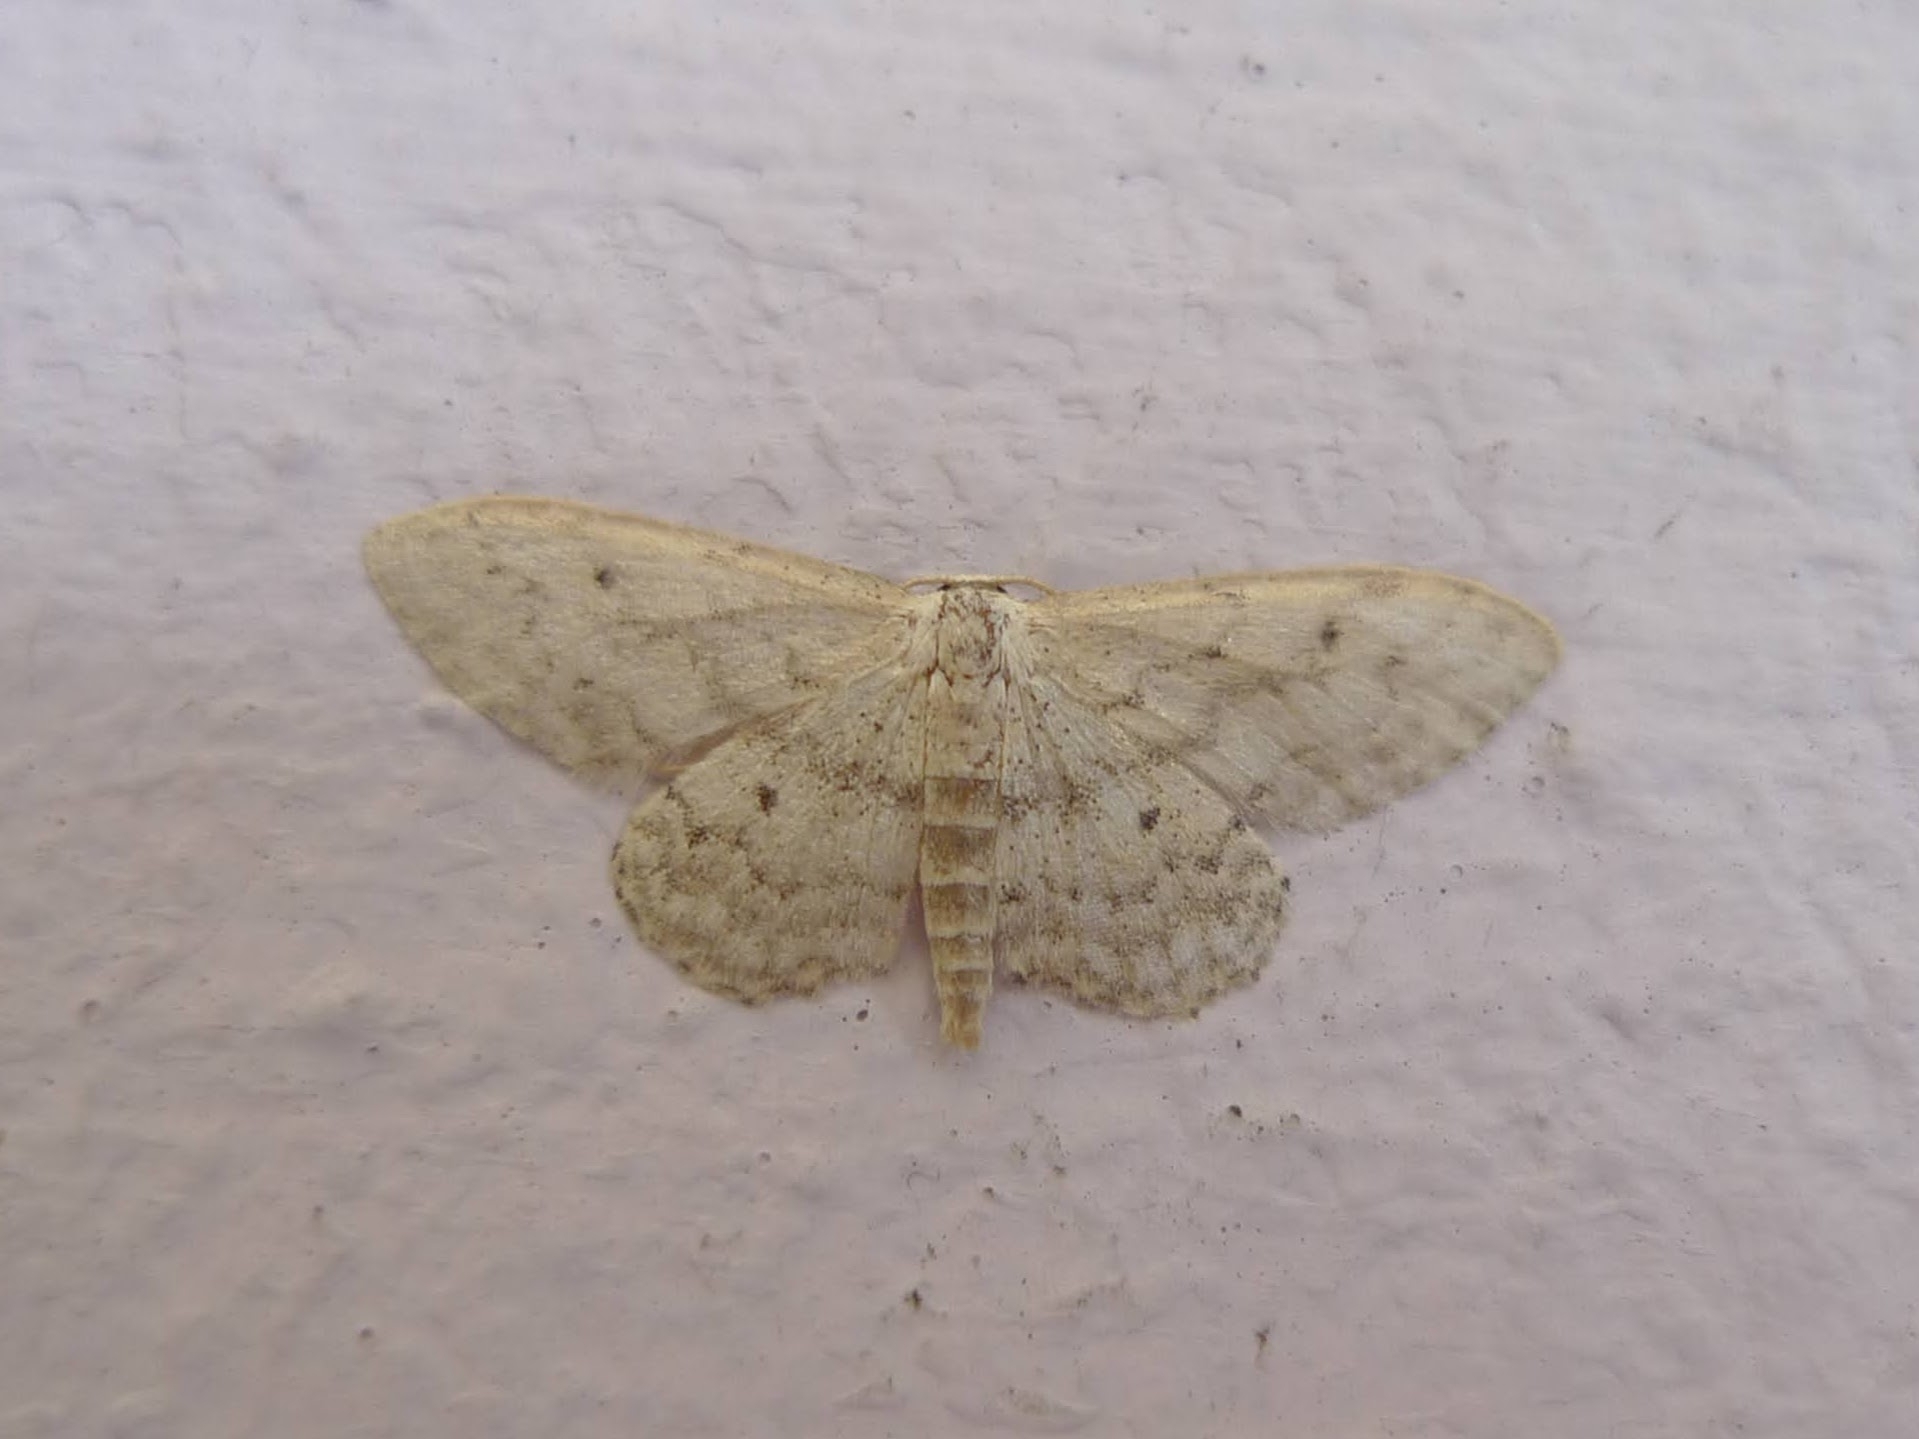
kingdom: Animalia
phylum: Arthropoda
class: Insecta
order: Lepidoptera
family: Geometridae
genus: Idaea
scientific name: Idaea seriata
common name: Small dusty wave
